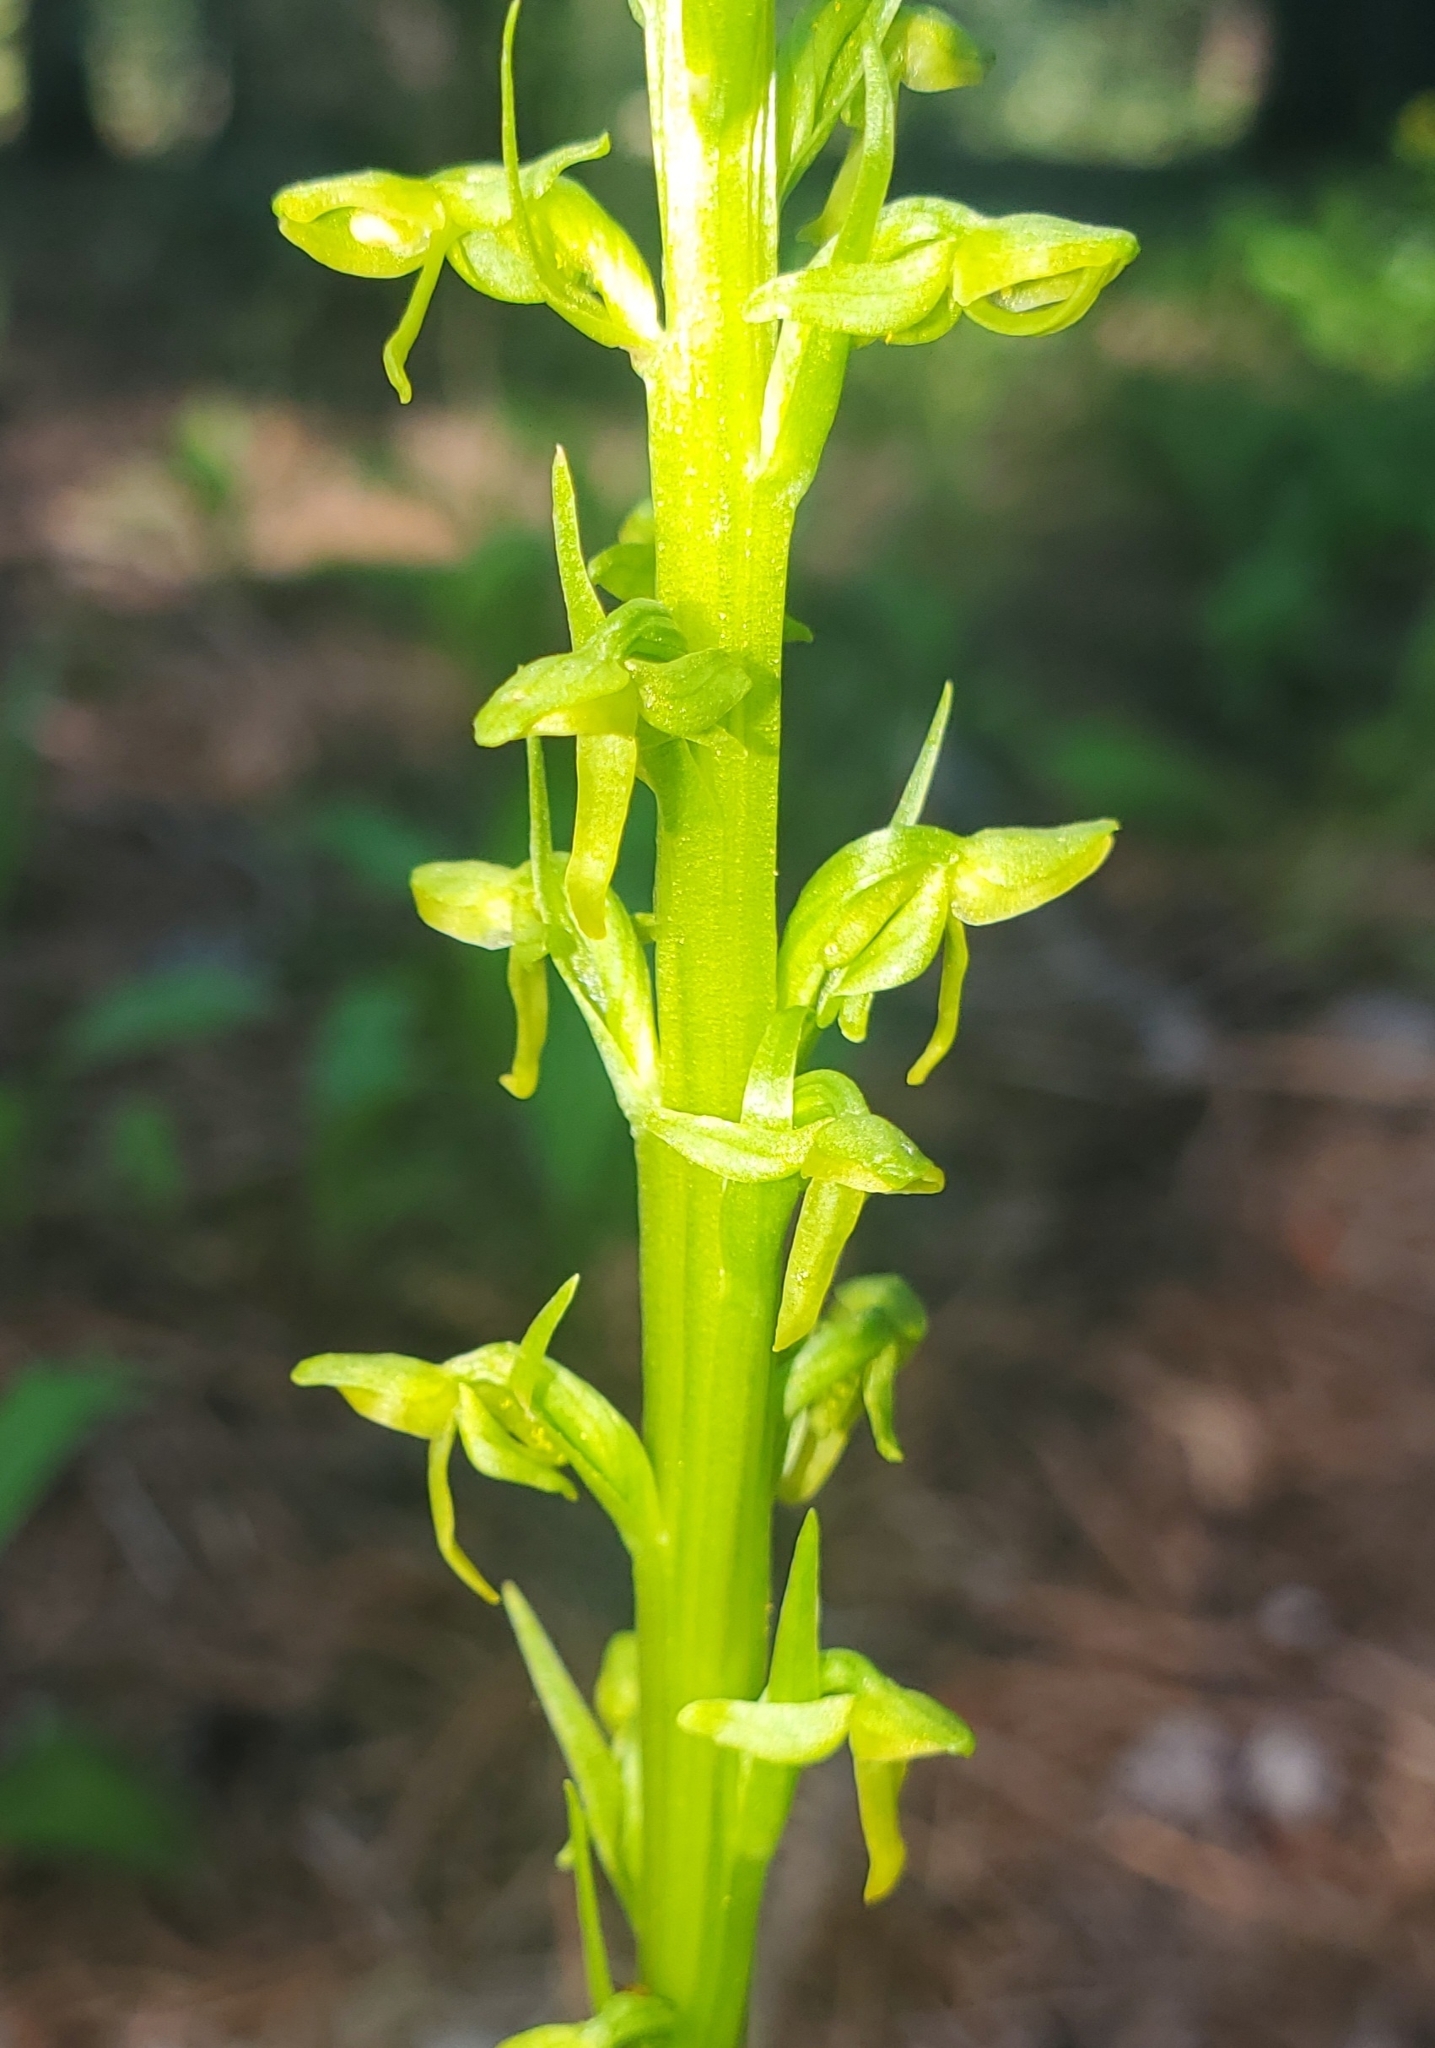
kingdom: Plantae
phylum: Tracheophyta
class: Liliopsida
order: Asparagales
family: Orchidaceae
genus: Platanthera
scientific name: Platanthera tescamnis
